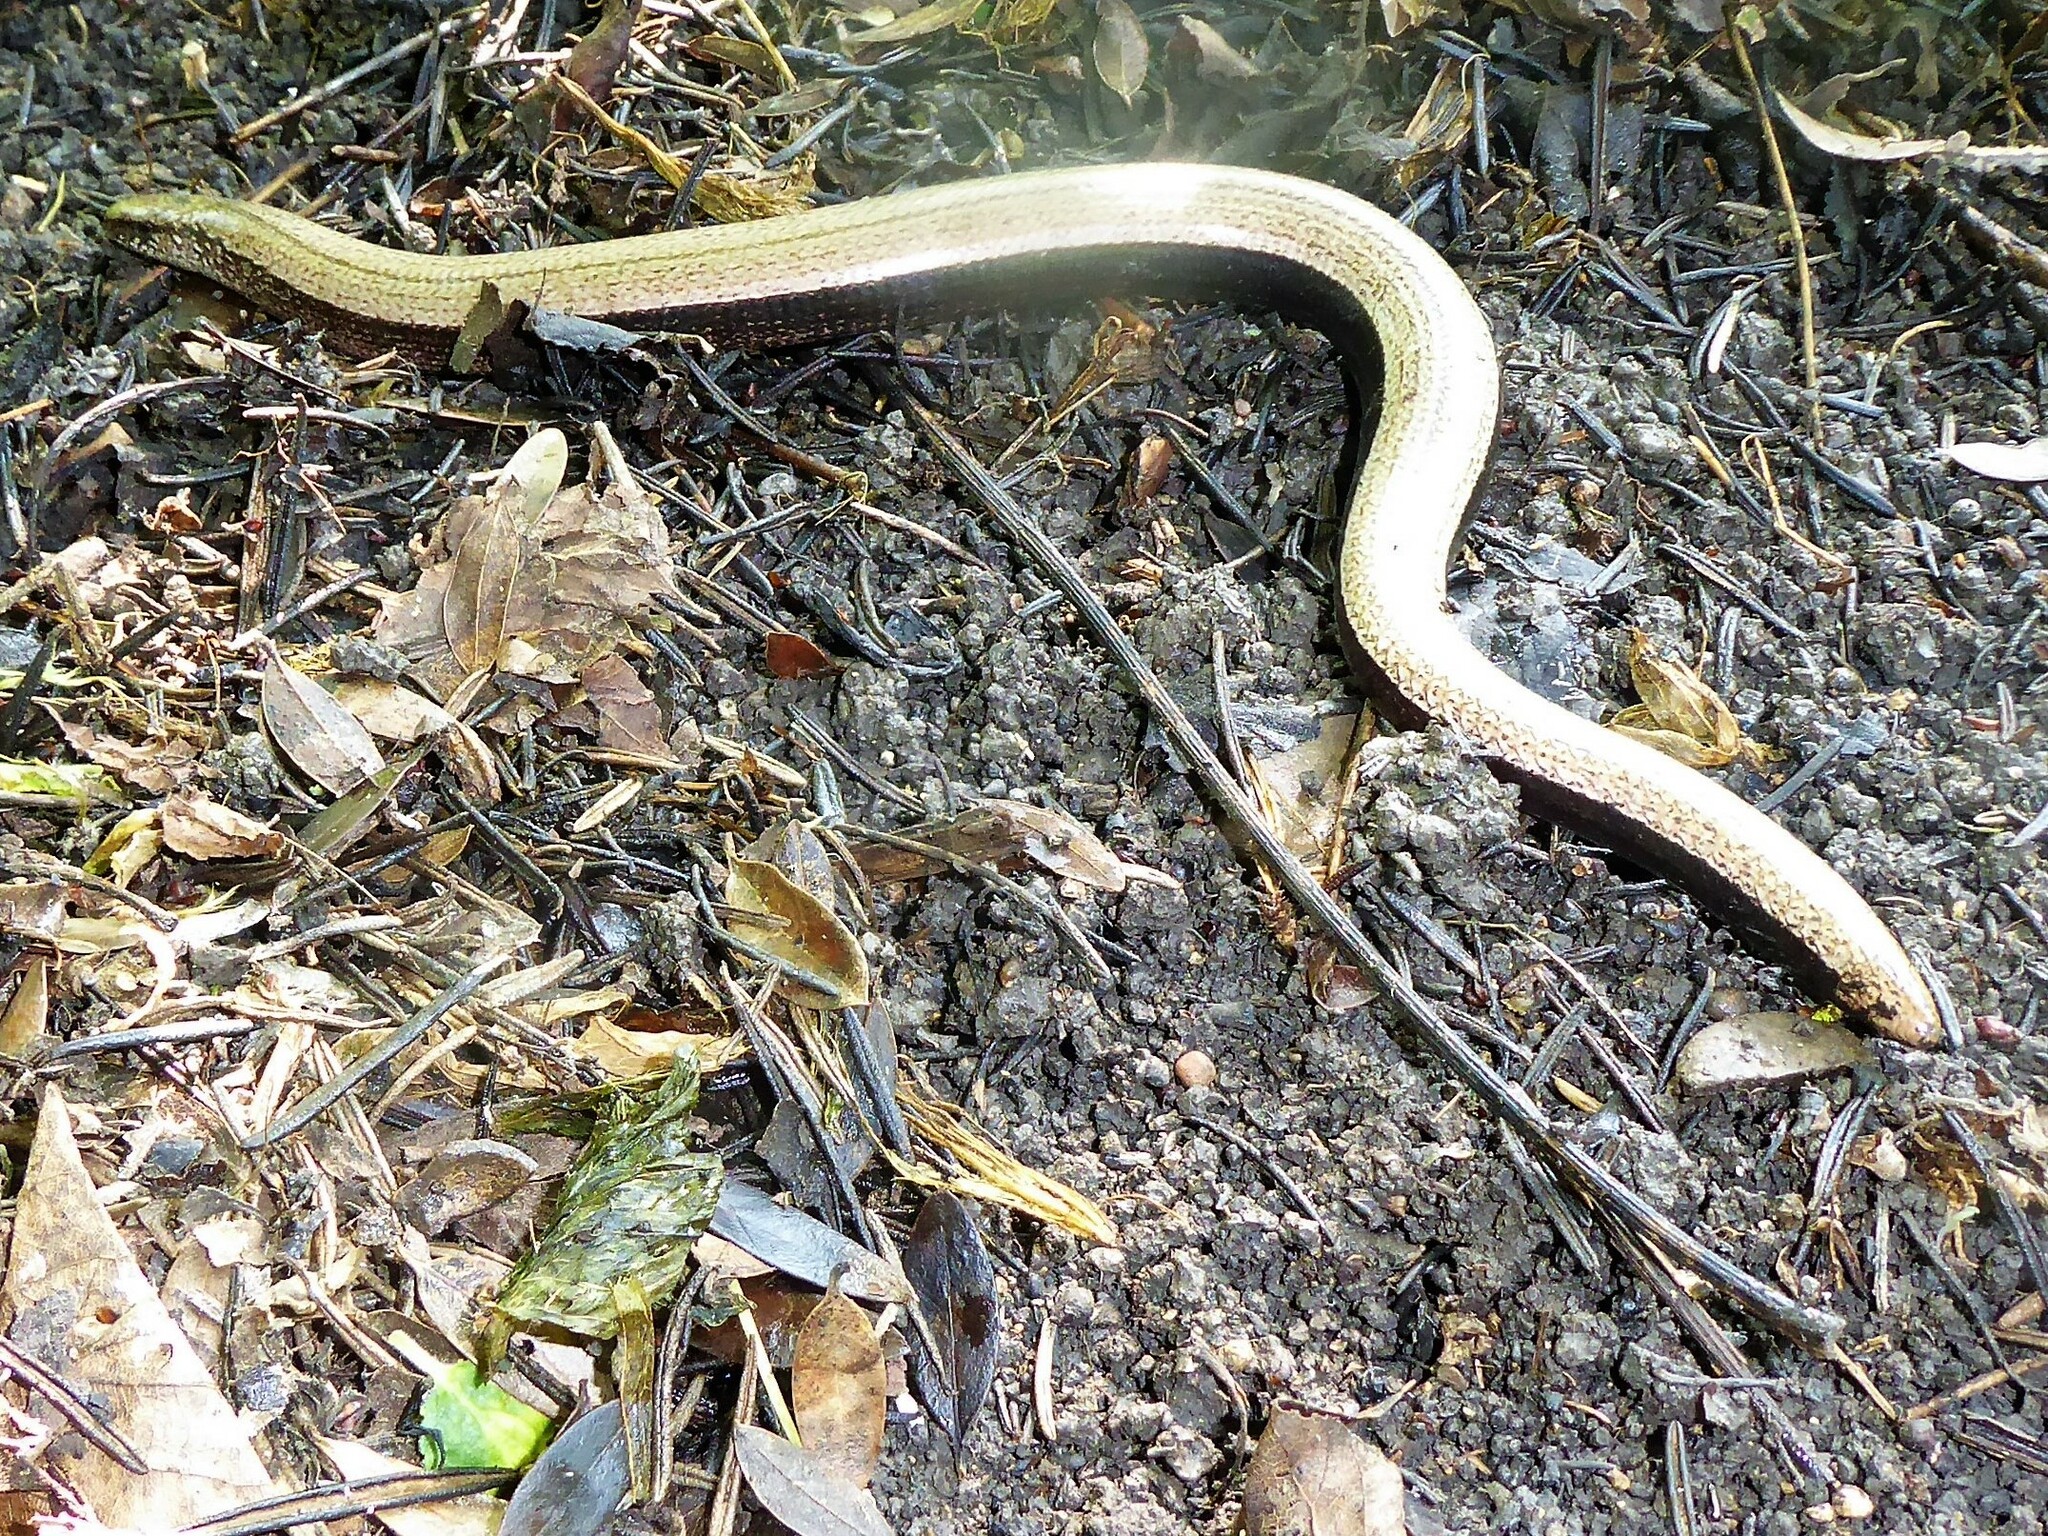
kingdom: Animalia
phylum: Chordata
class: Squamata
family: Anguidae
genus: Anguis
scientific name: Anguis fragilis
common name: Slow worm
